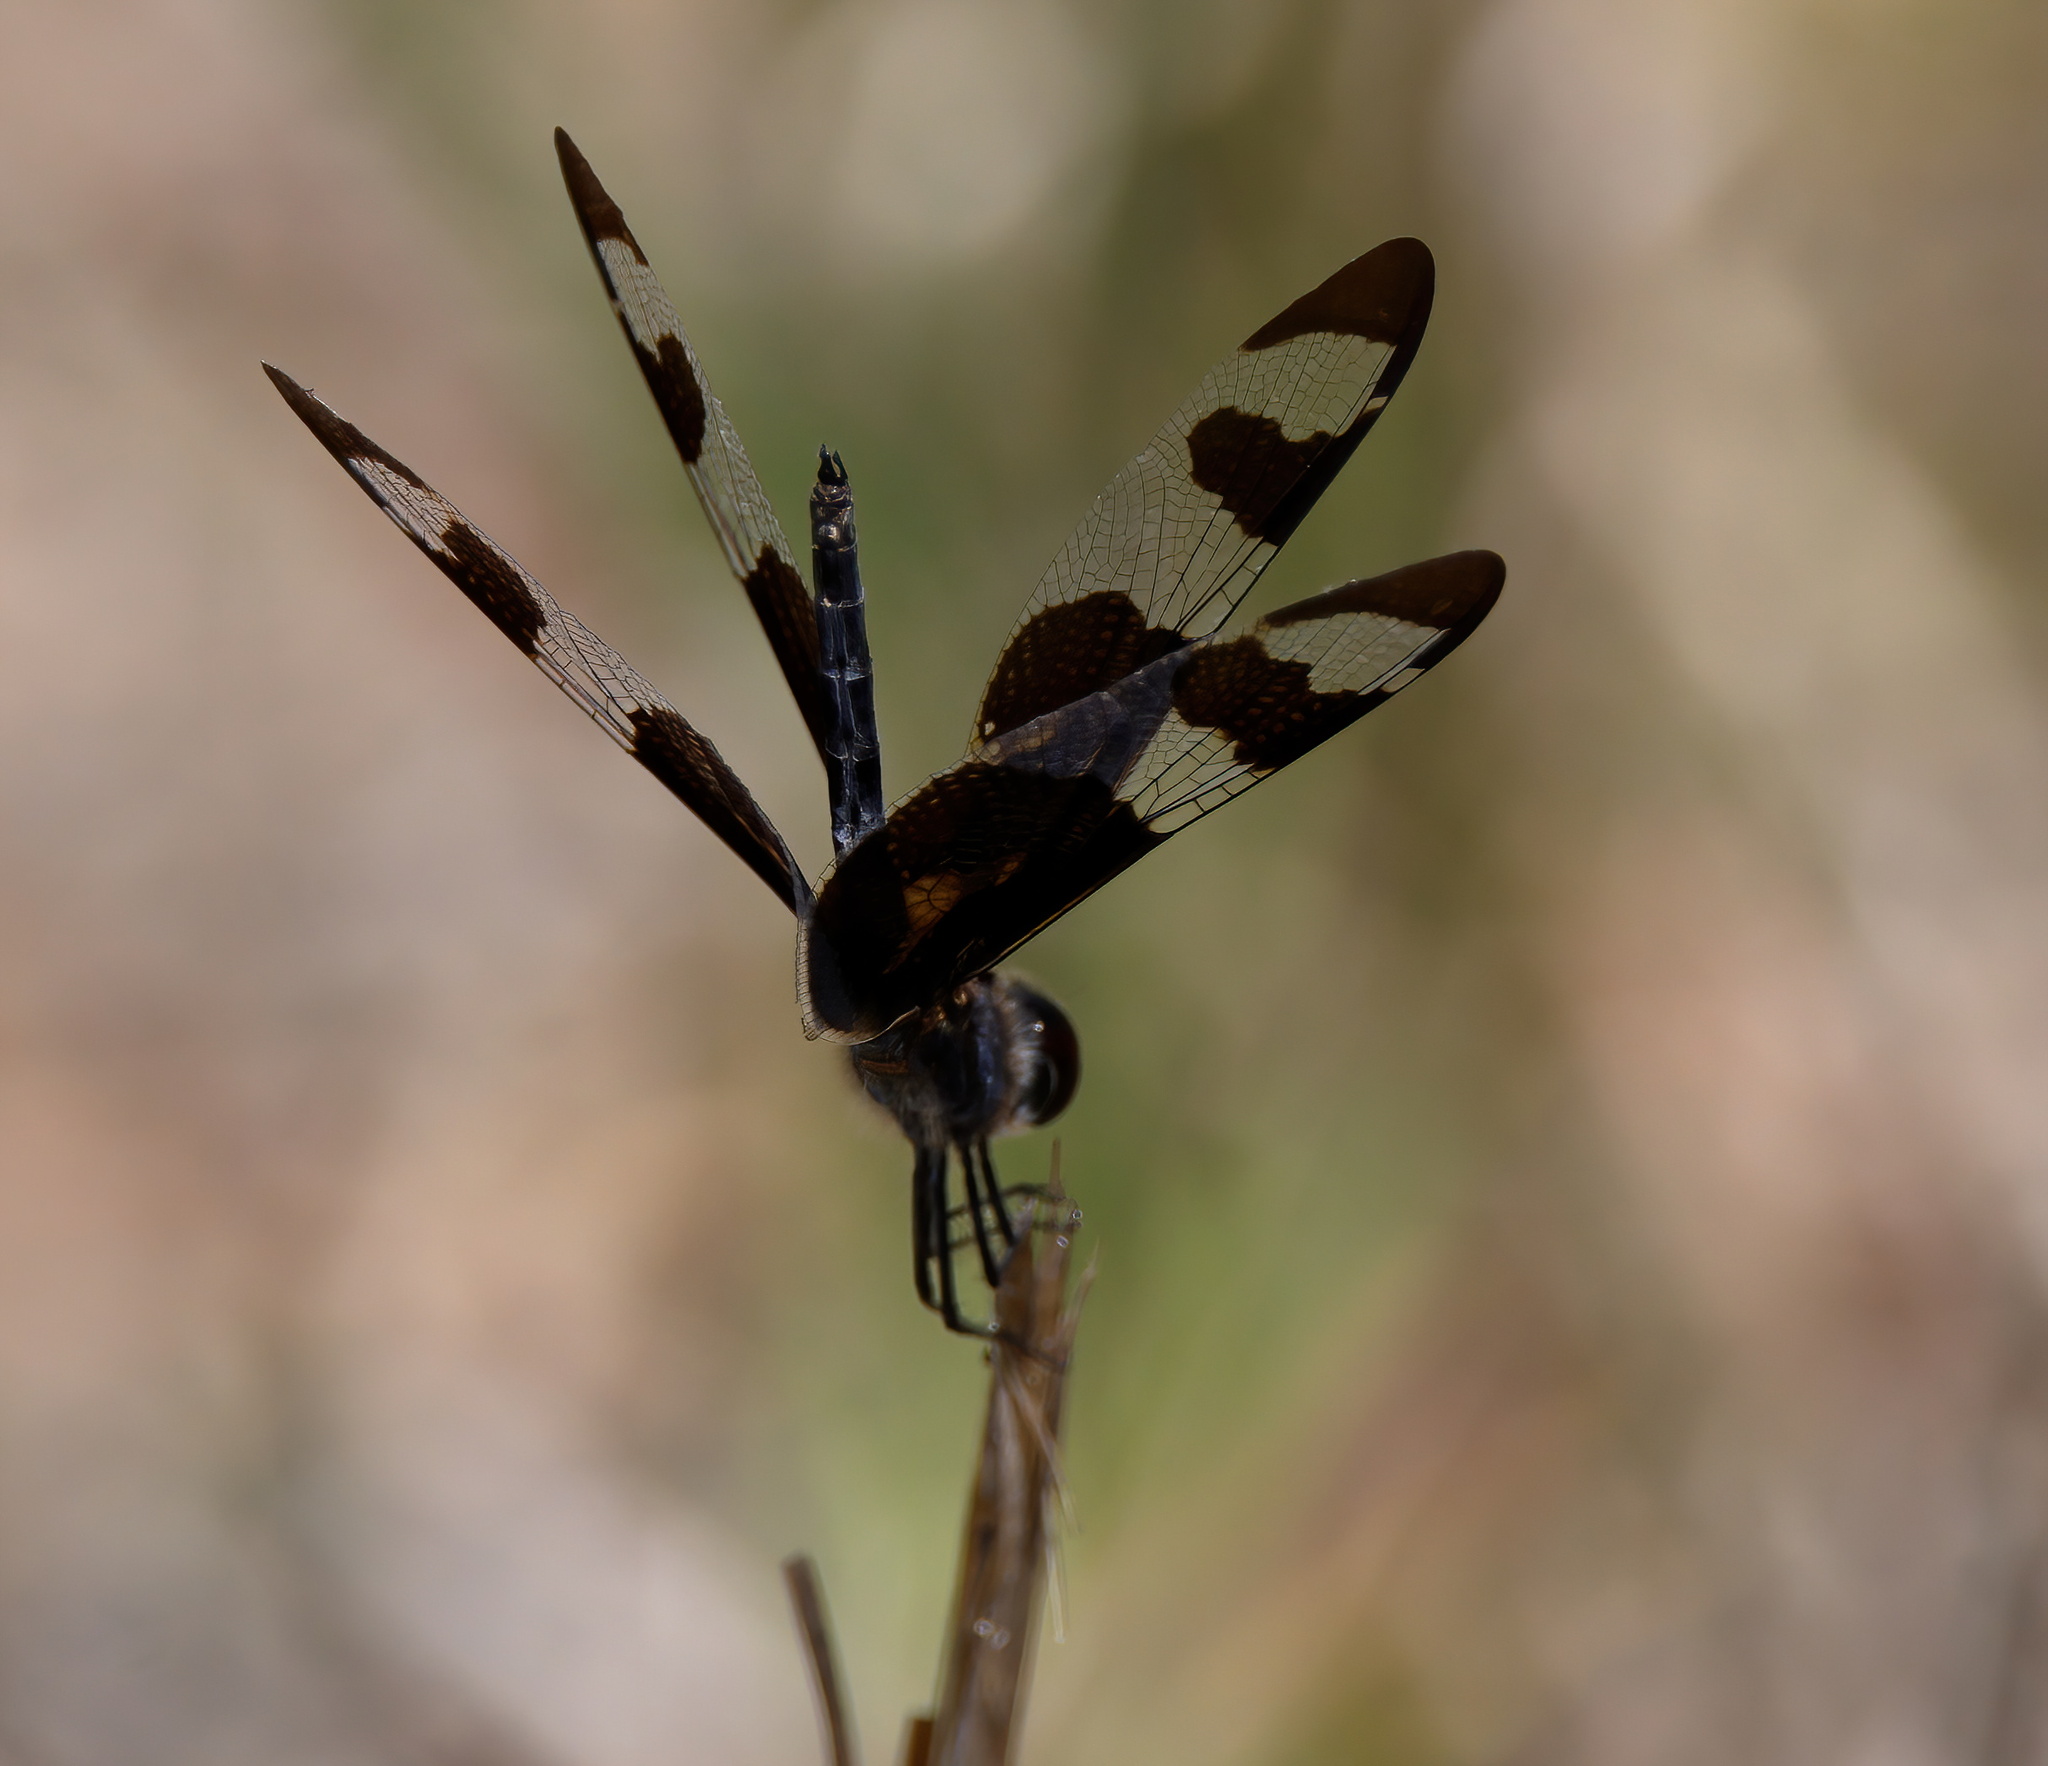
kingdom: Animalia
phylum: Arthropoda
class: Insecta
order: Odonata
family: Libellulidae
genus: Celithemis
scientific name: Celithemis fasciata
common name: Banded pennant
